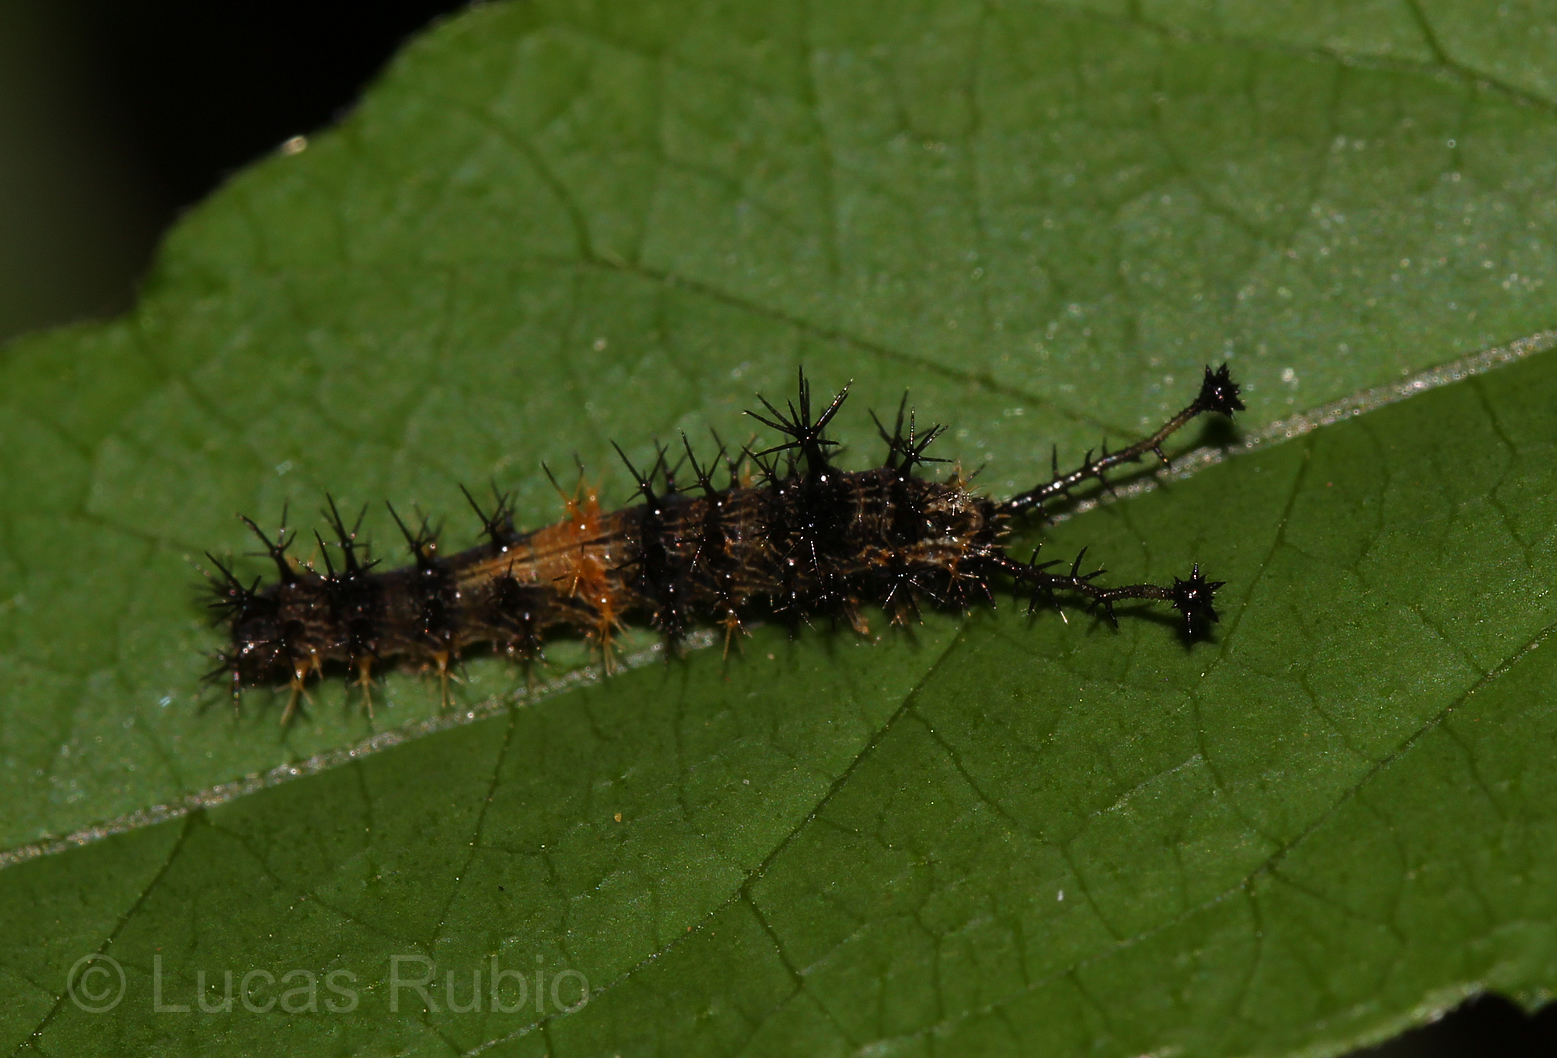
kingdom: Animalia
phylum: Arthropoda
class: Insecta
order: Lepidoptera
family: Sesiidae
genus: Sesia
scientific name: Sesia Biblis hyperia
